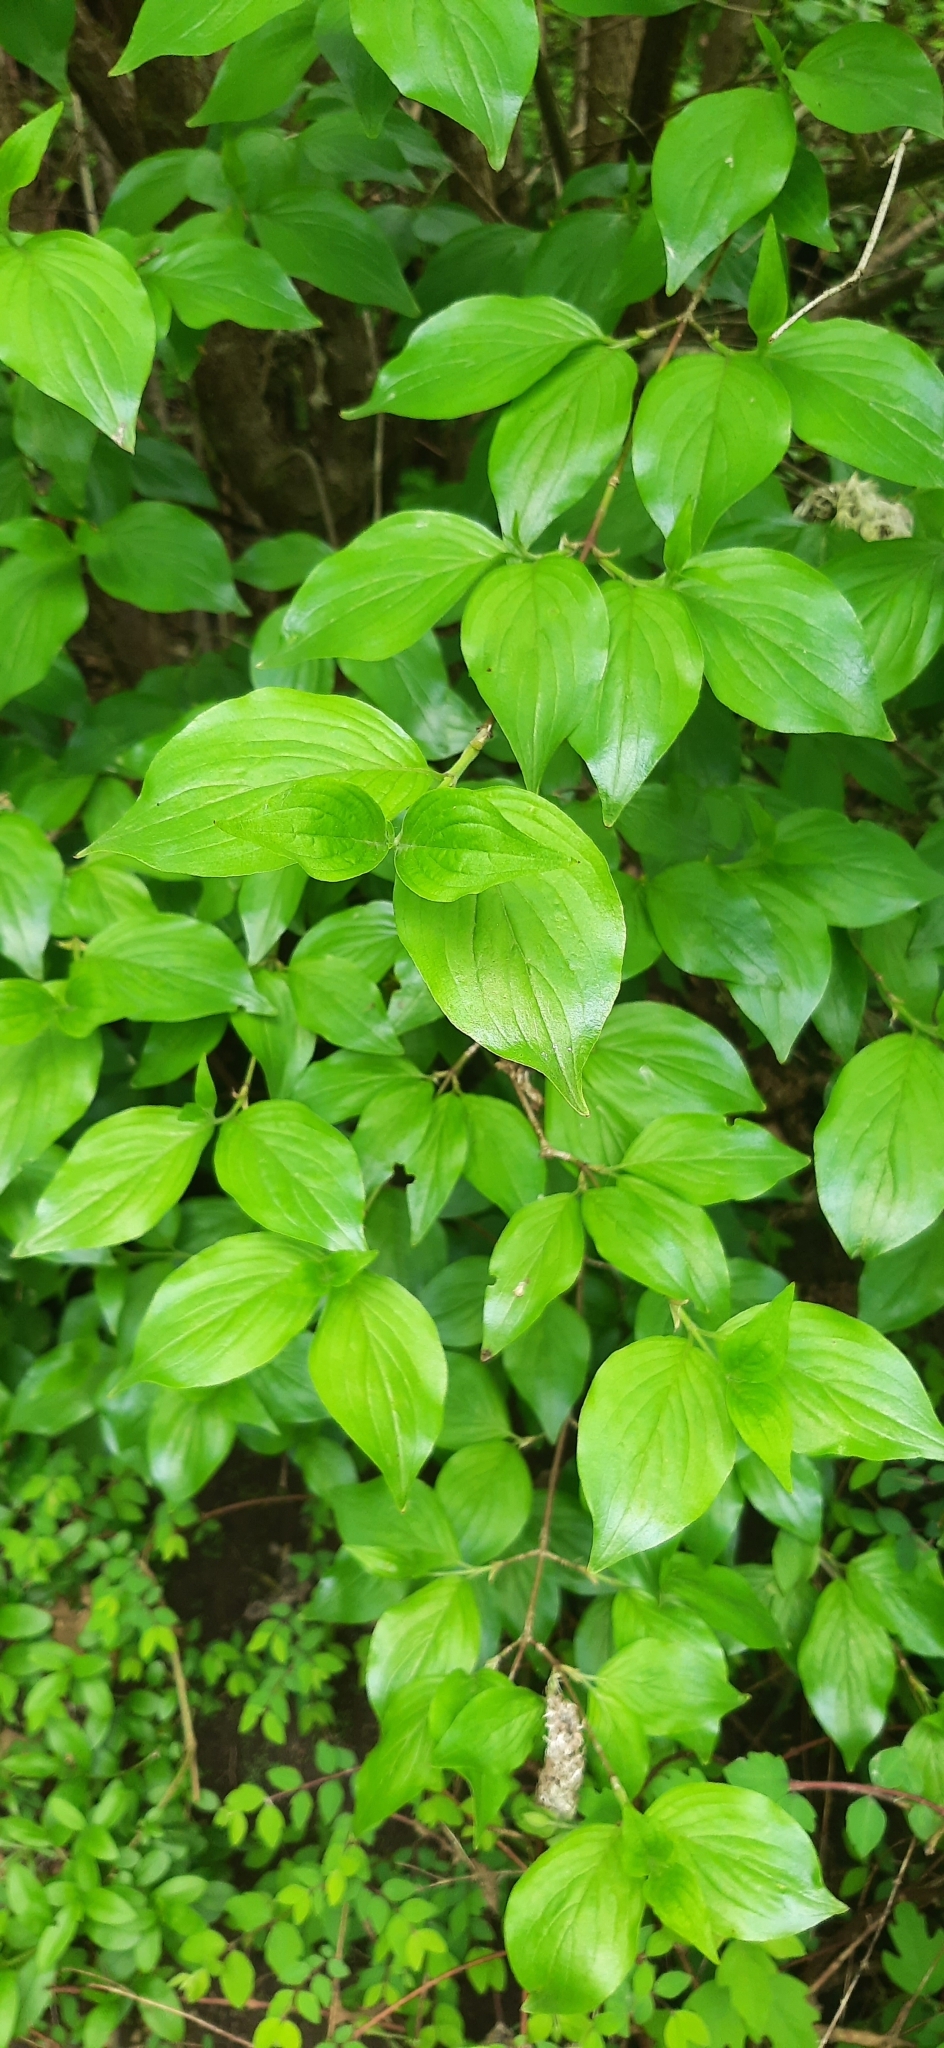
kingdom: Plantae
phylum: Tracheophyta
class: Magnoliopsida
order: Cornales
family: Cornaceae
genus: Cornus
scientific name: Cornus mas
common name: Cornelian-cherry
